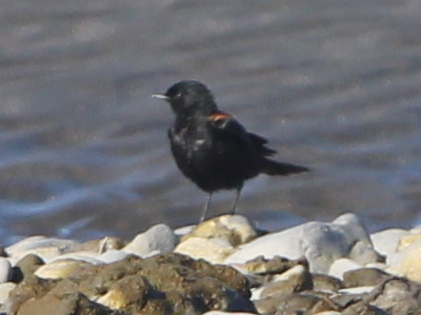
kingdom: Animalia
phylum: Chordata
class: Aves
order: Passeriformes
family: Tyrannidae
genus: Lessonia
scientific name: Lessonia rufa
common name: Austral negrito
